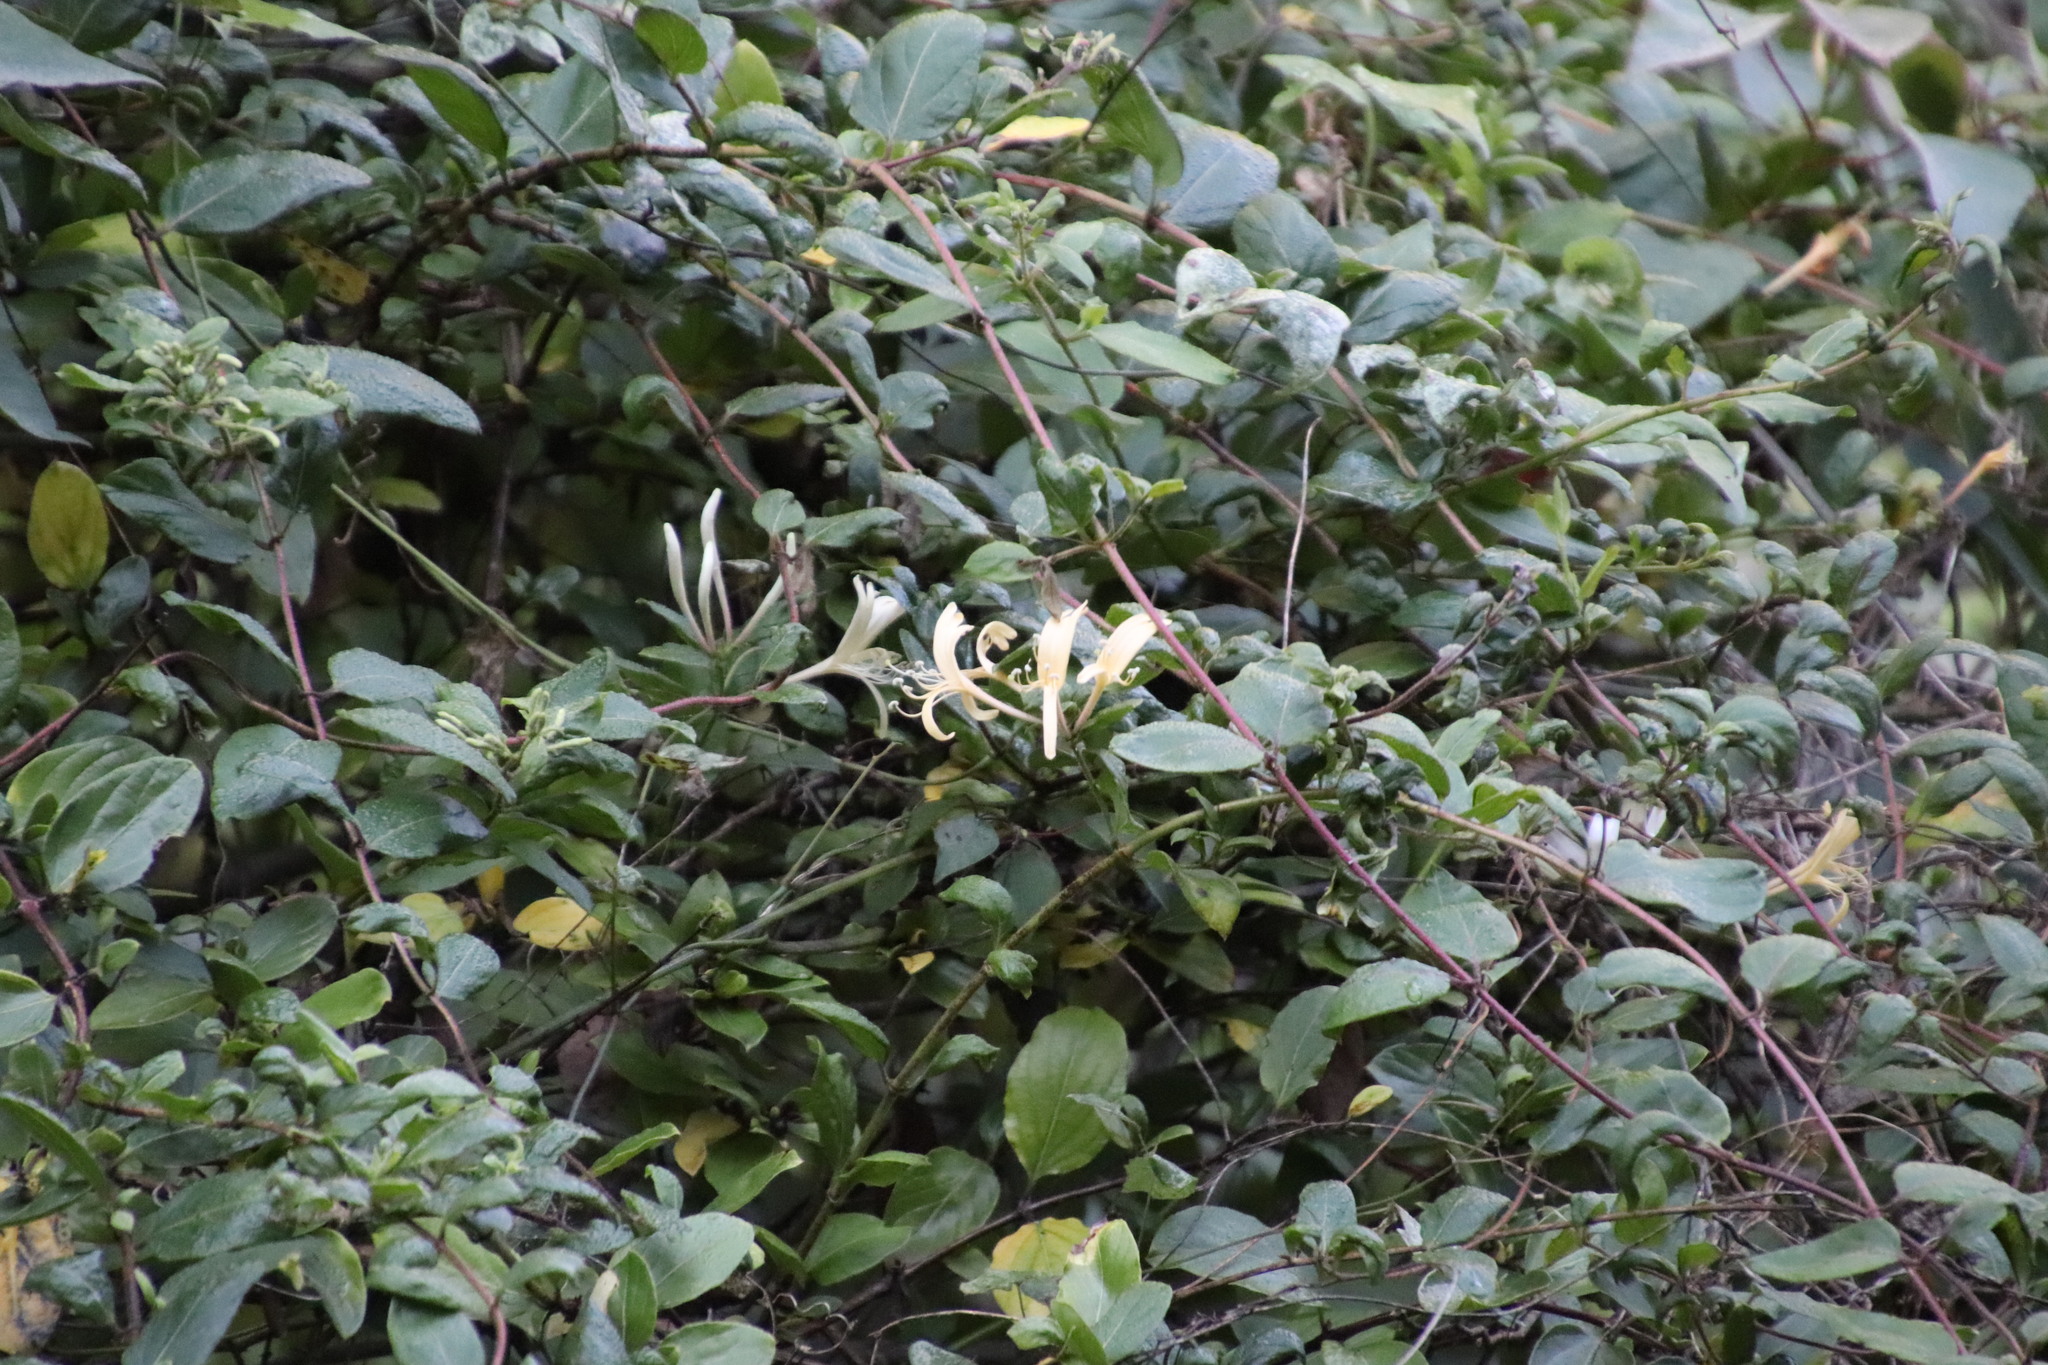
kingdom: Plantae
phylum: Tracheophyta
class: Magnoliopsida
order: Dipsacales
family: Caprifoliaceae
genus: Lonicera
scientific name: Lonicera japonica
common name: Japanese honeysuckle
